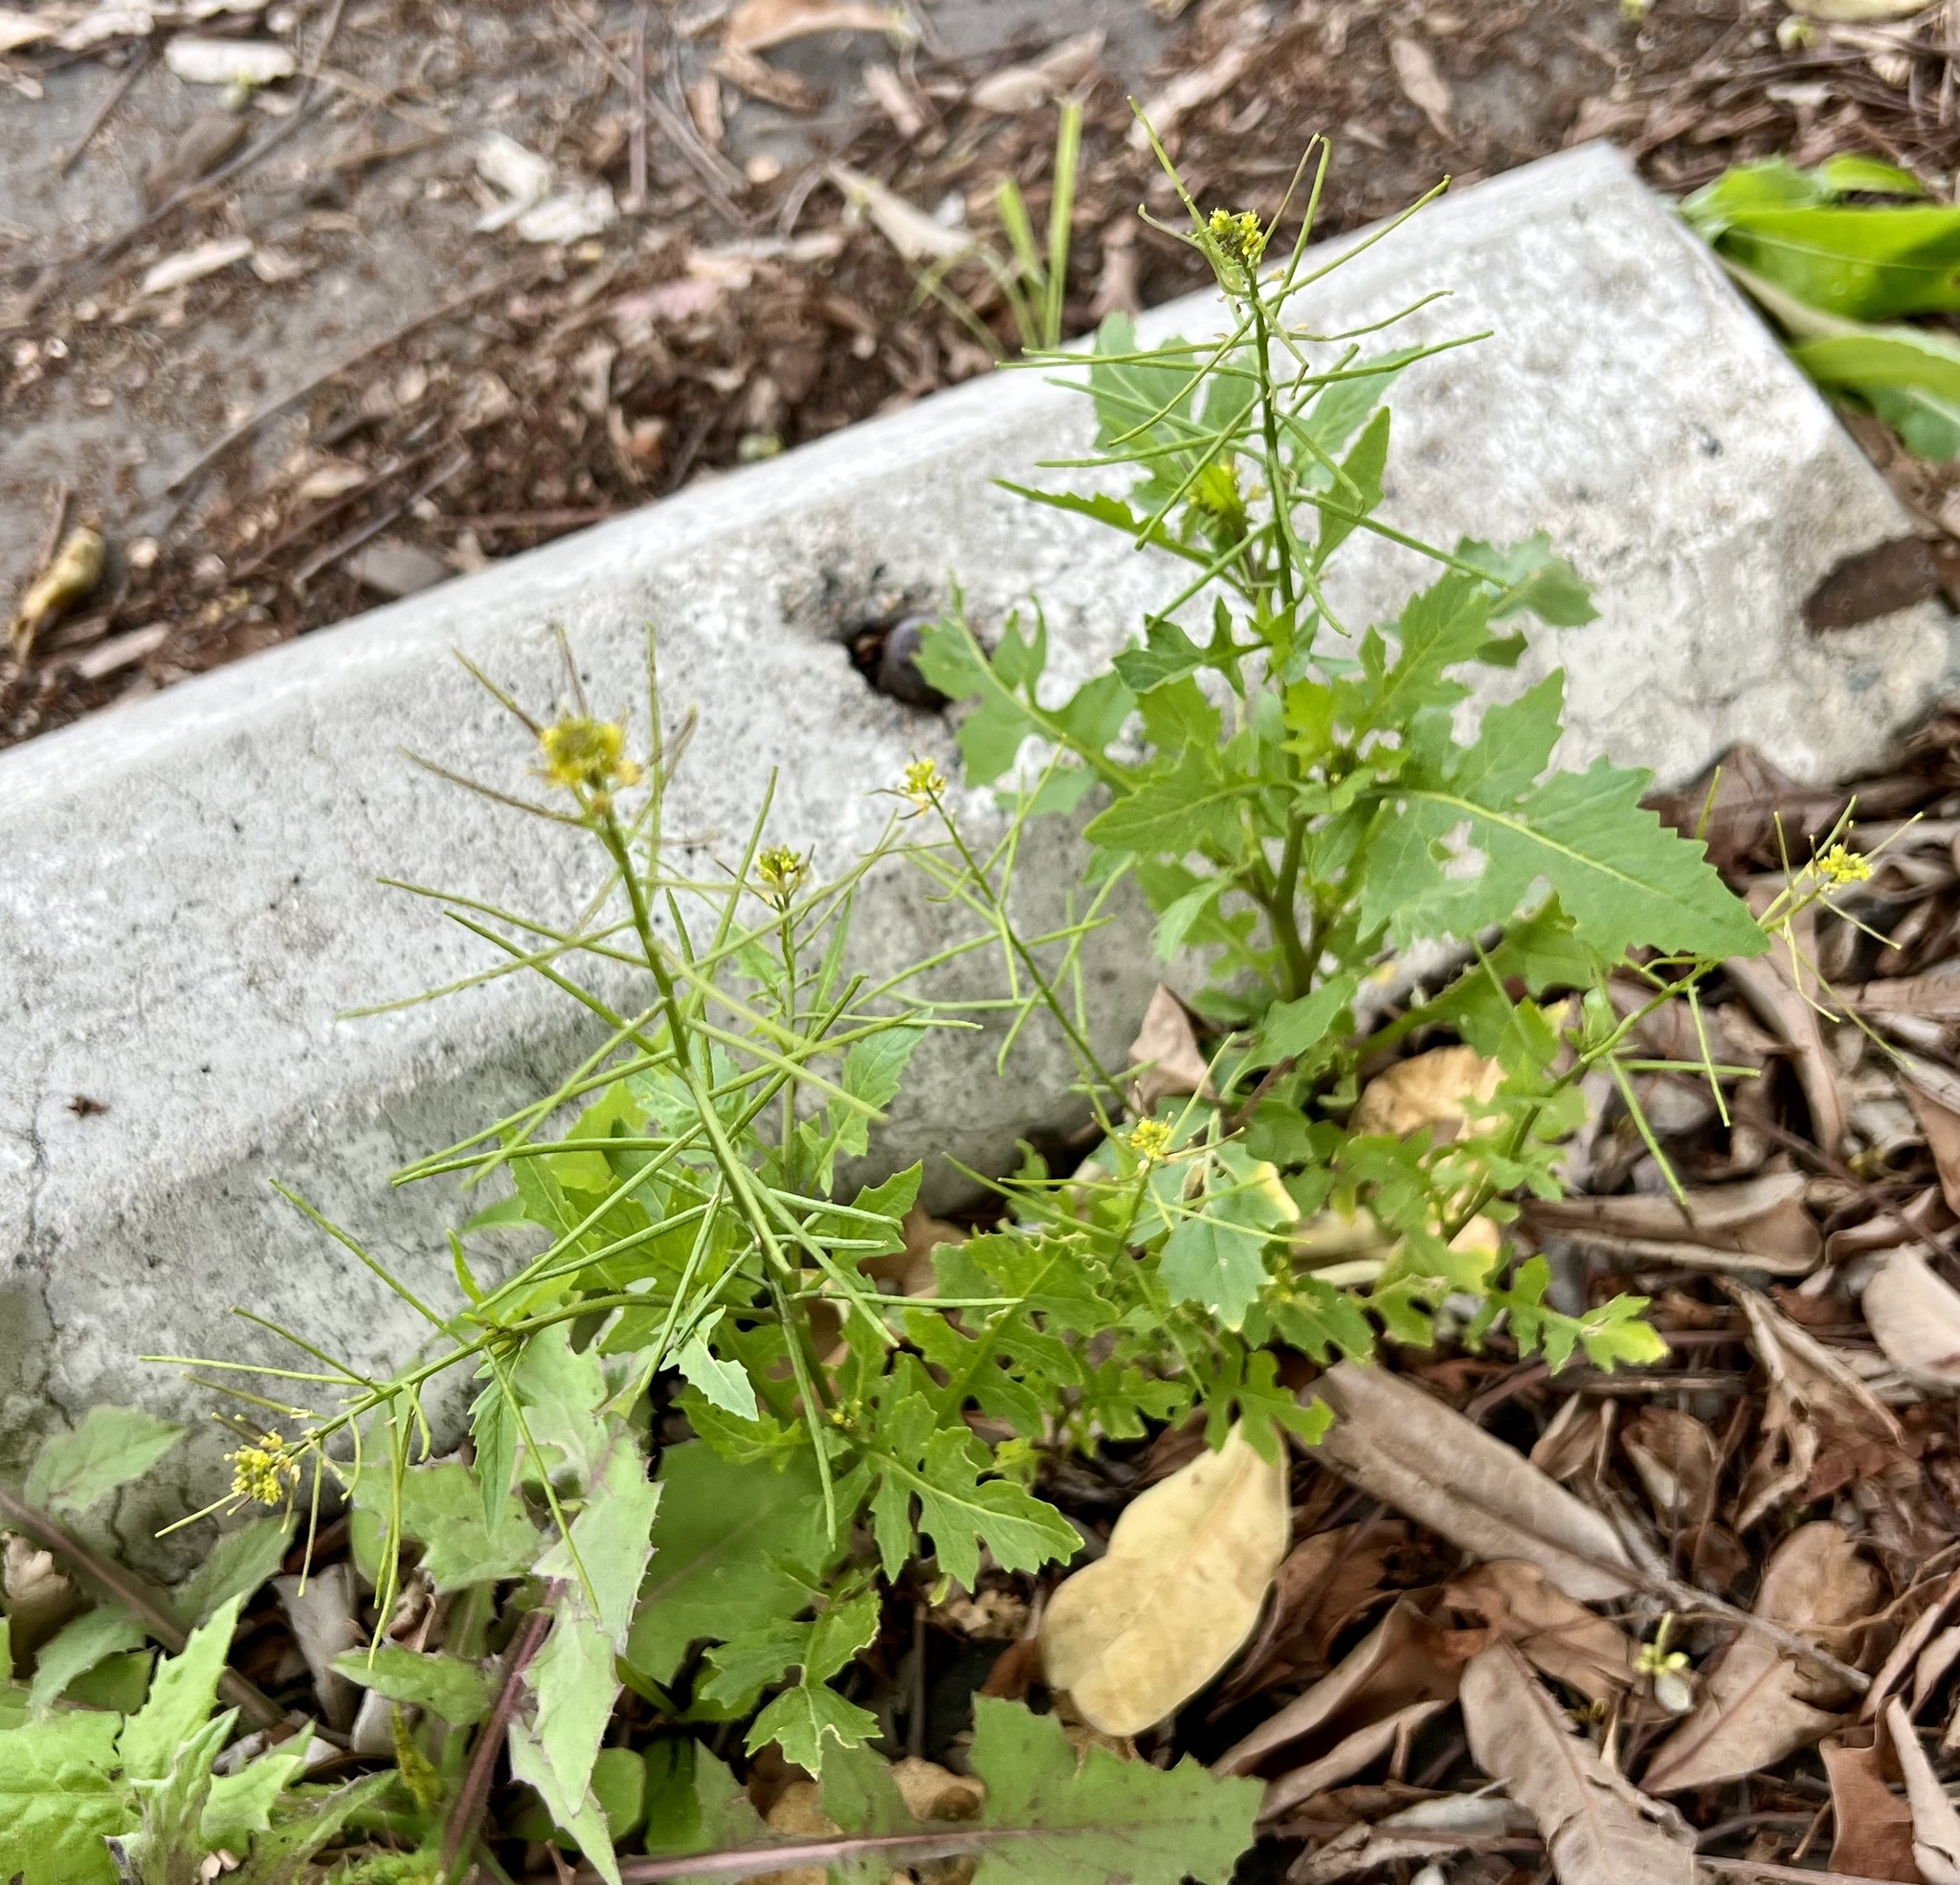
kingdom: Plantae
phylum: Tracheophyta
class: Magnoliopsida
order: Brassicales
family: Brassicaceae
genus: Sisymbrium
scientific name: Sisymbrium erysimoides
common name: French rocket
